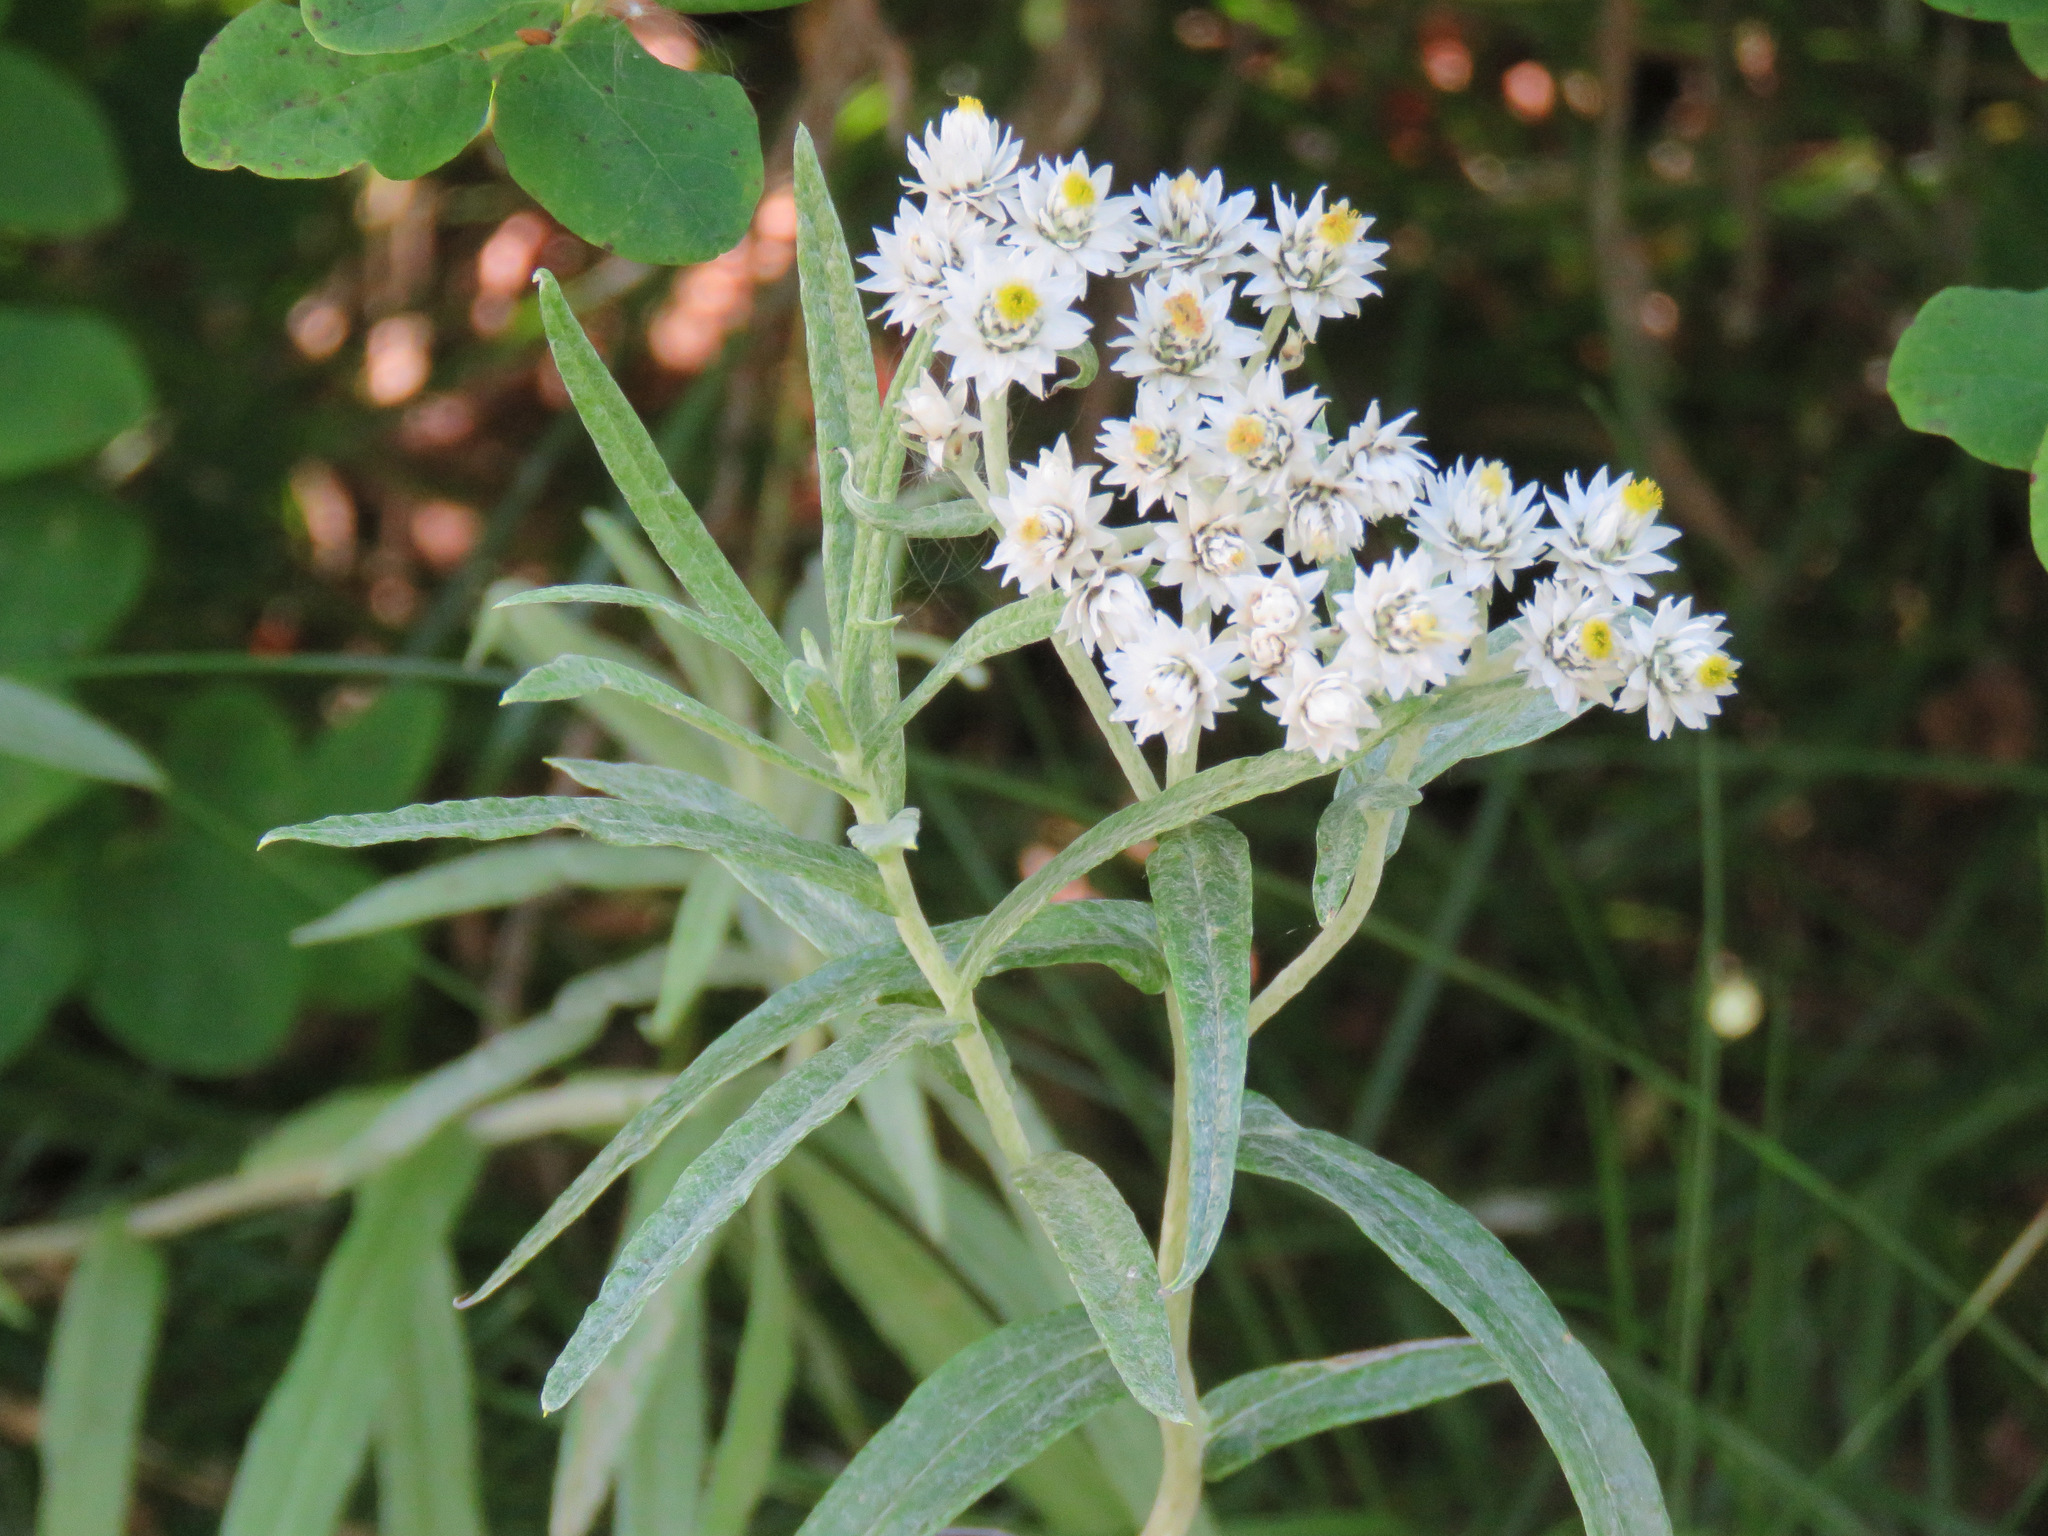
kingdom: Plantae
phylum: Tracheophyta
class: Magnoliopsida
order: Asterales
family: Asteraceae
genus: Anaphalis
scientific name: Anaphalis margaritacea
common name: Pearly everlasting
